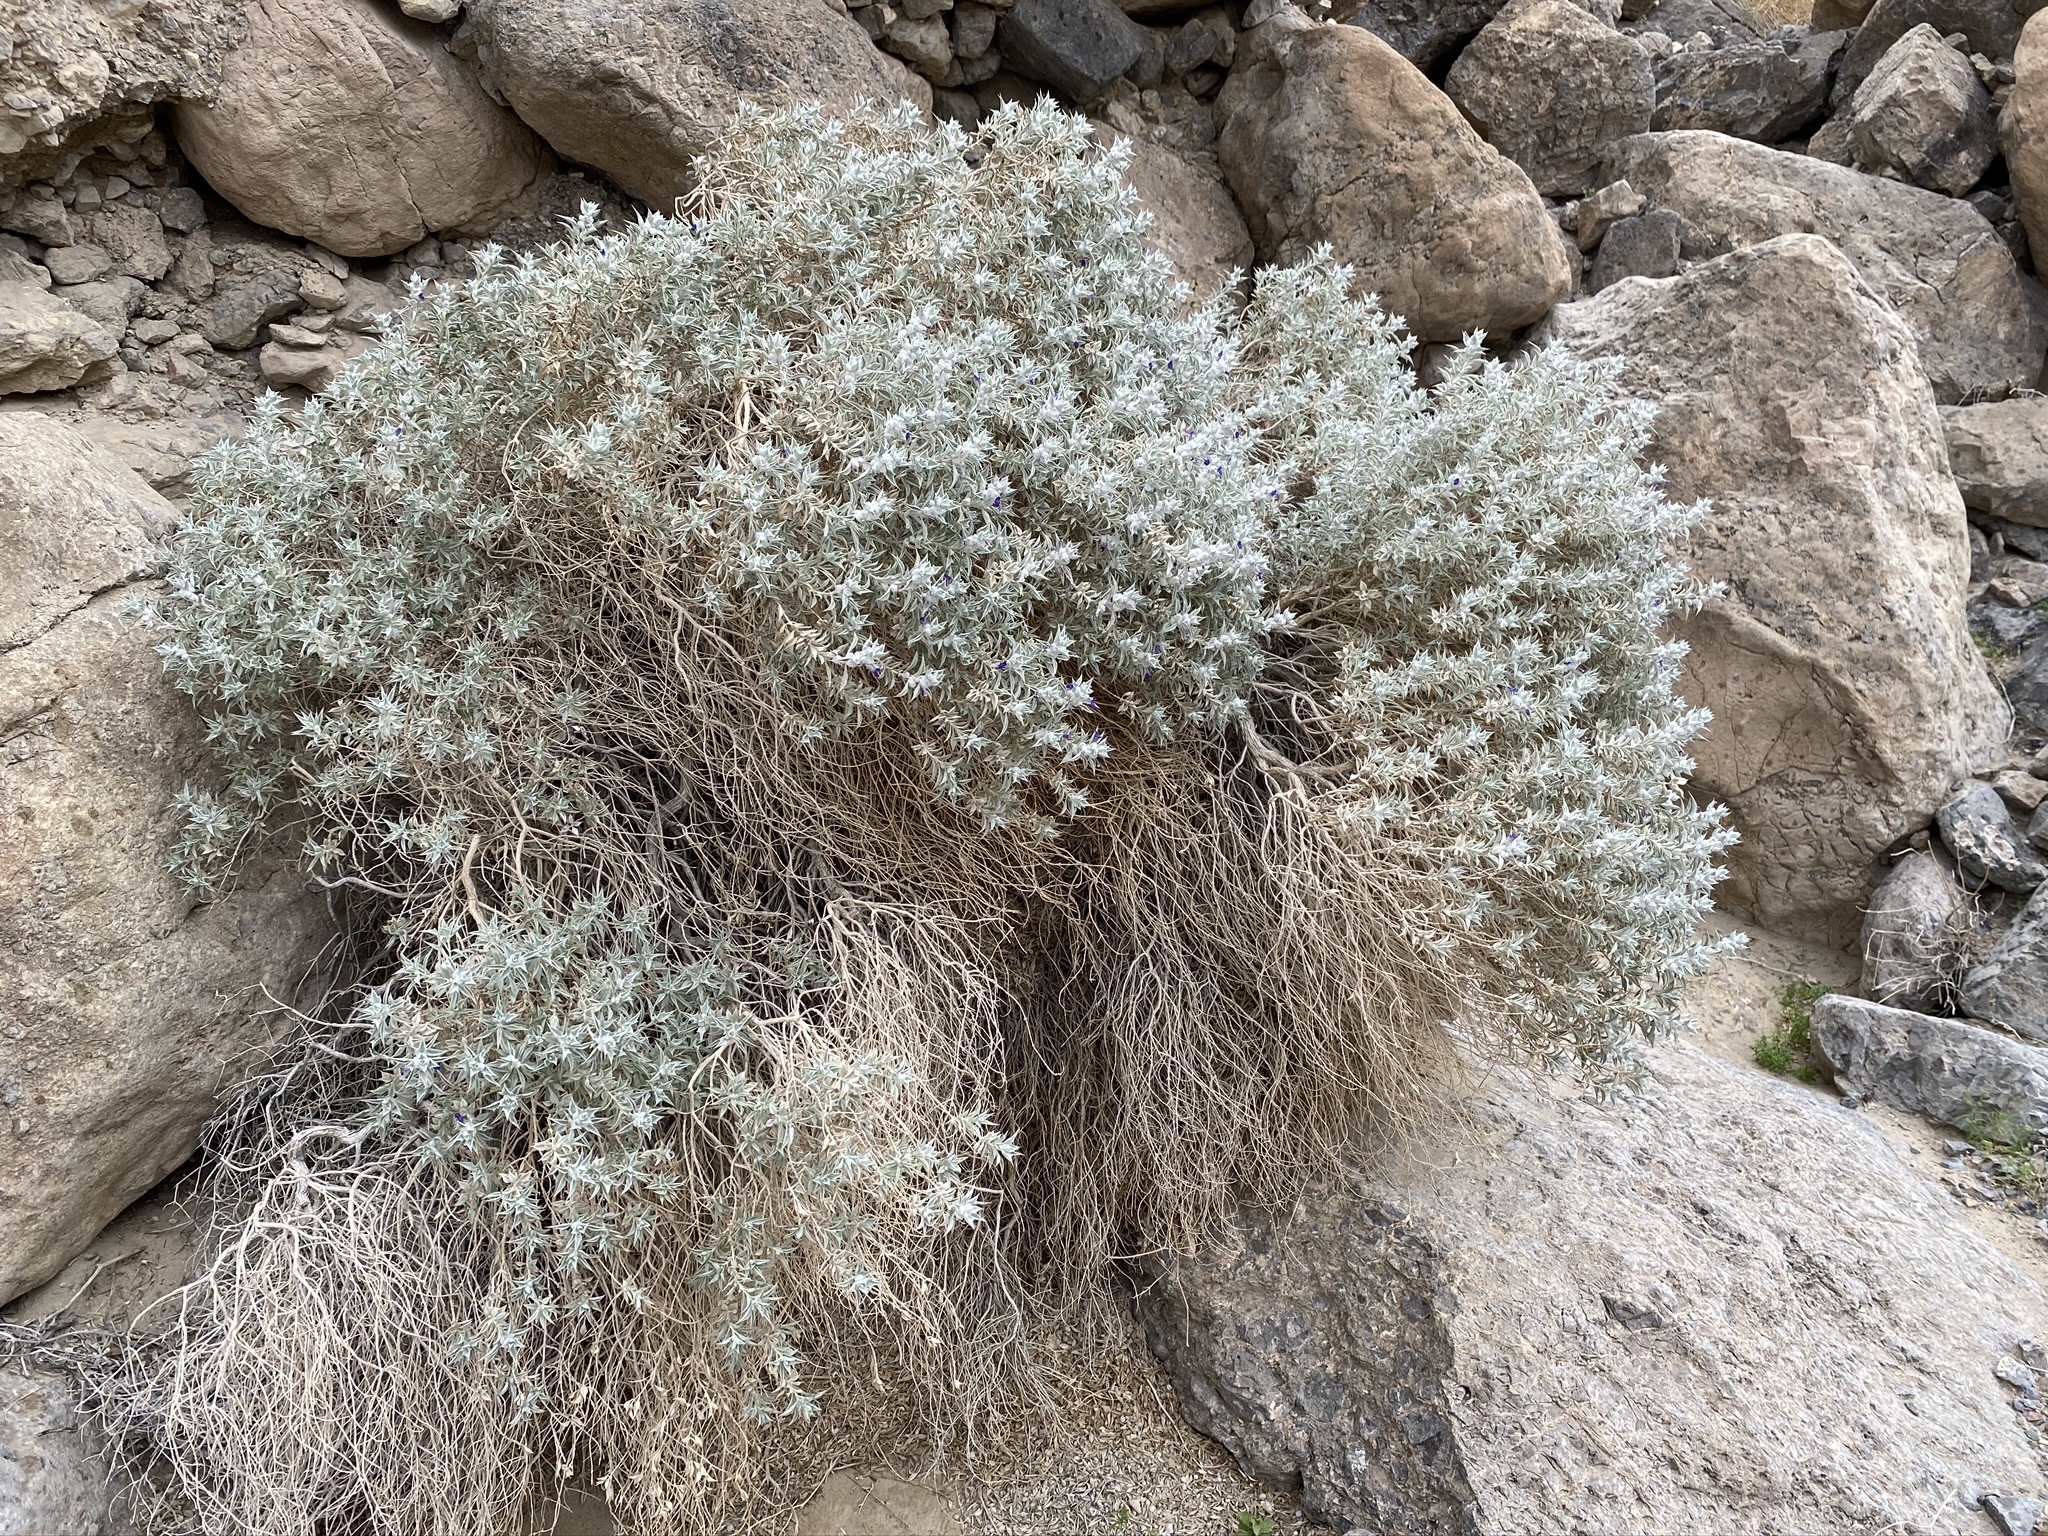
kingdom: Plantae
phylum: Tracheophyta
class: Magnoliopsida
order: Lamiales
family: Lamiaceae
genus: Salvia
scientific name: Salvia funerea
